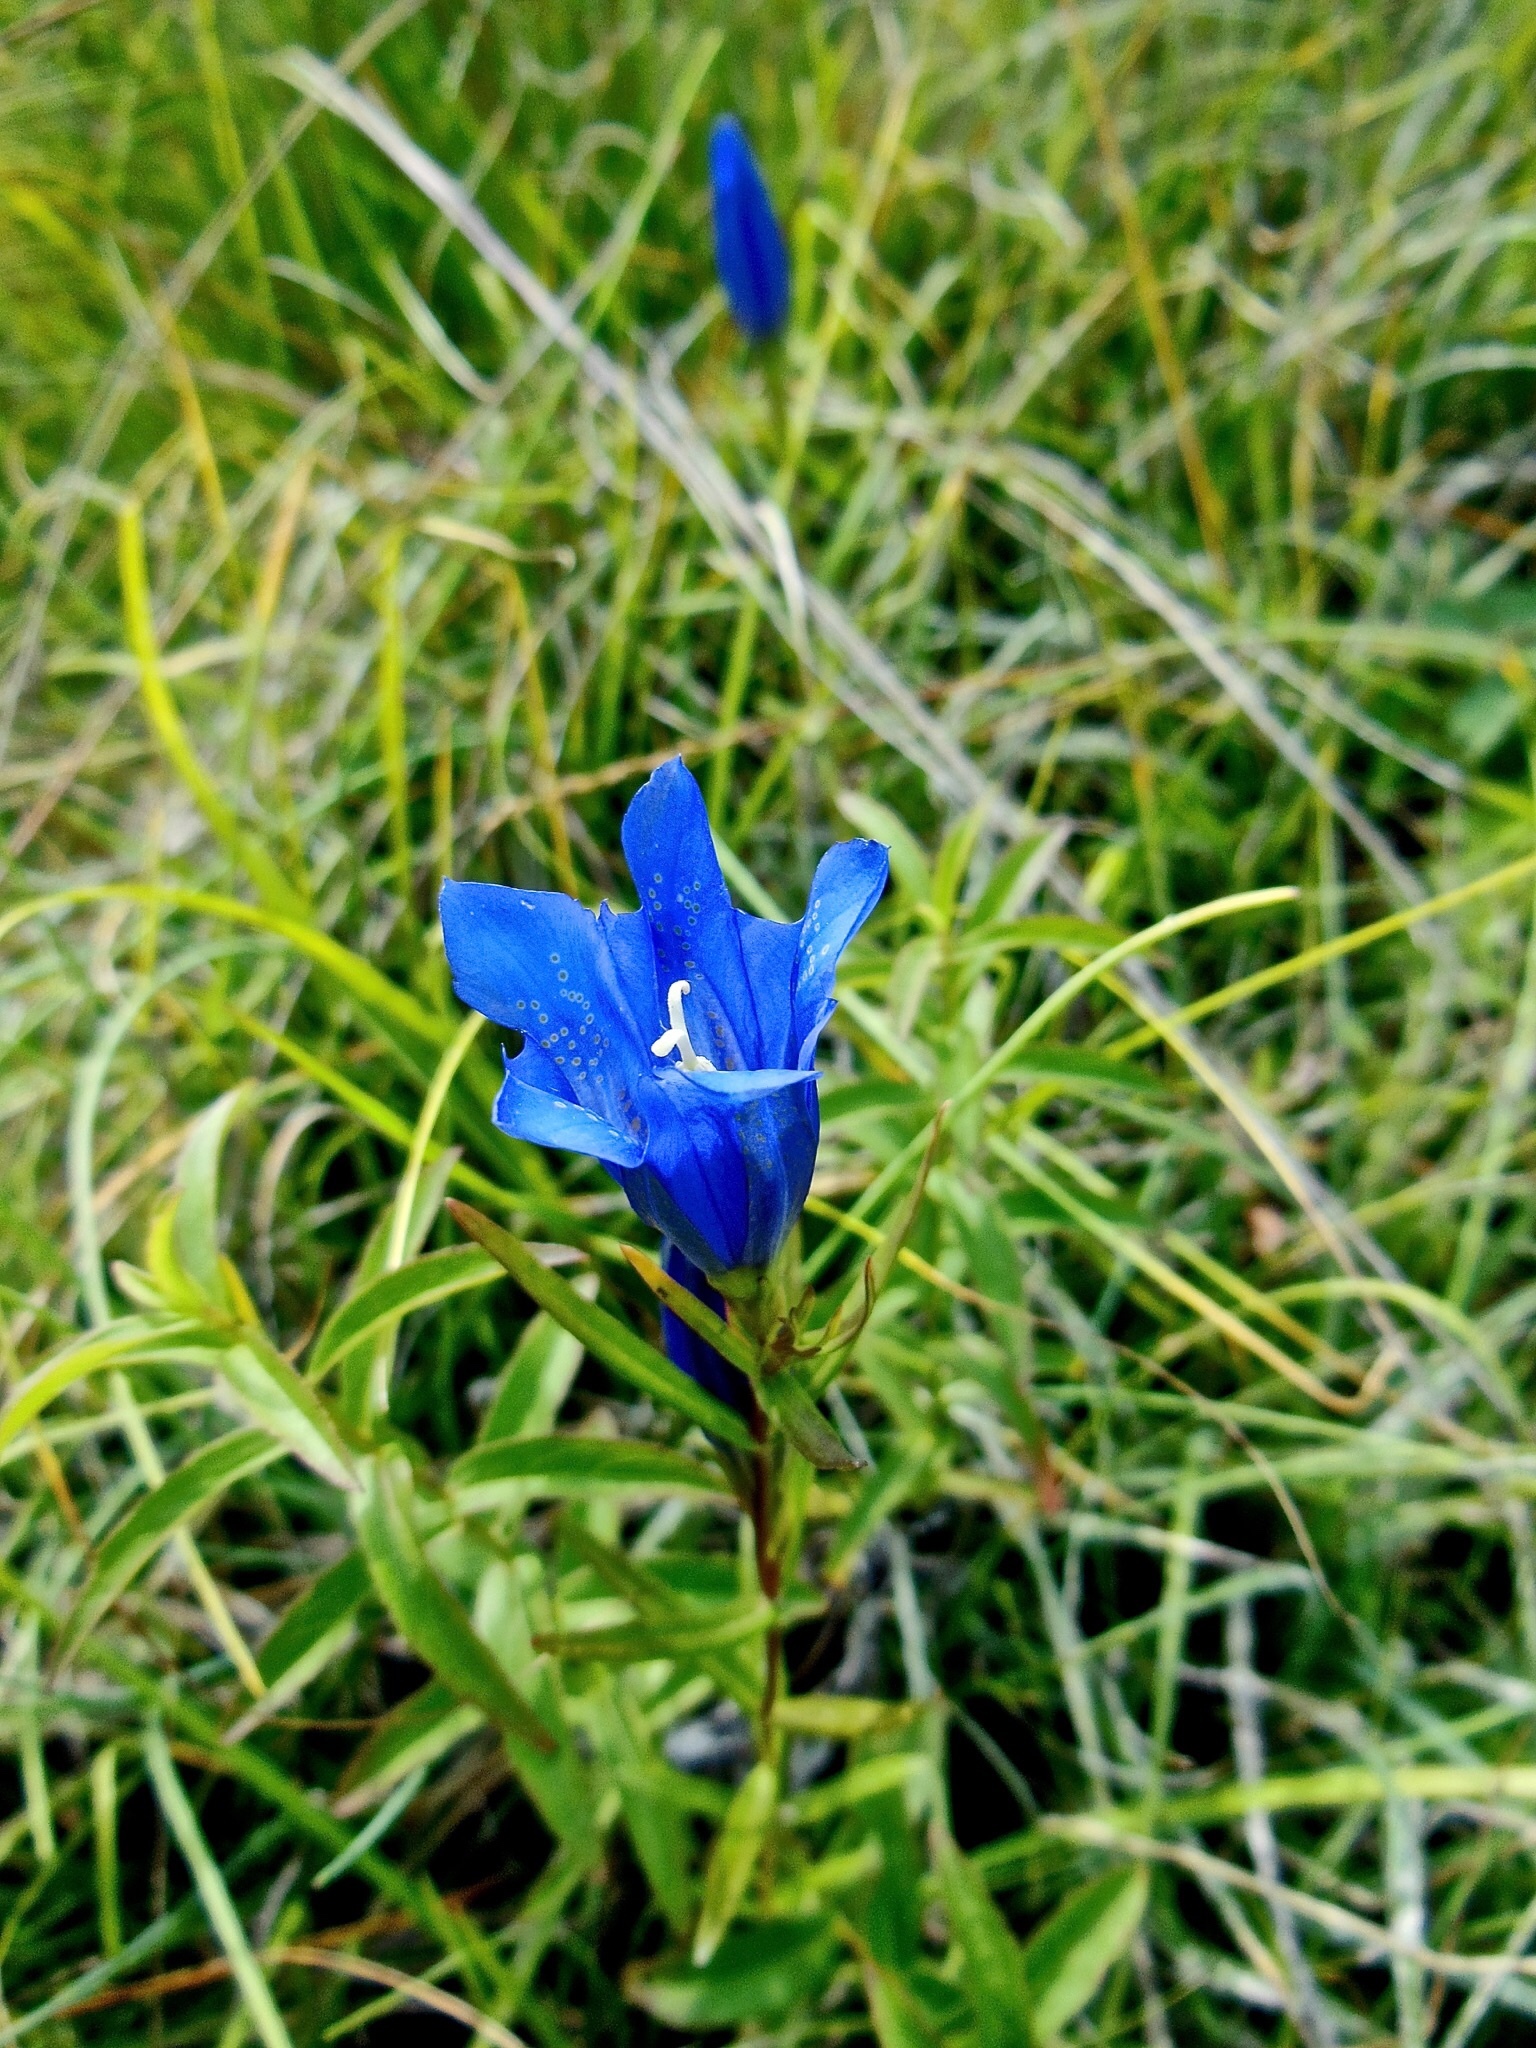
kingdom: Plantae
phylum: Tracheophyta
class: Magnoliopsida
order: Gentianales
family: Gentianaceae
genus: Gentiana
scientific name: Gentiana pneumonanthe
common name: Marsh gentian
